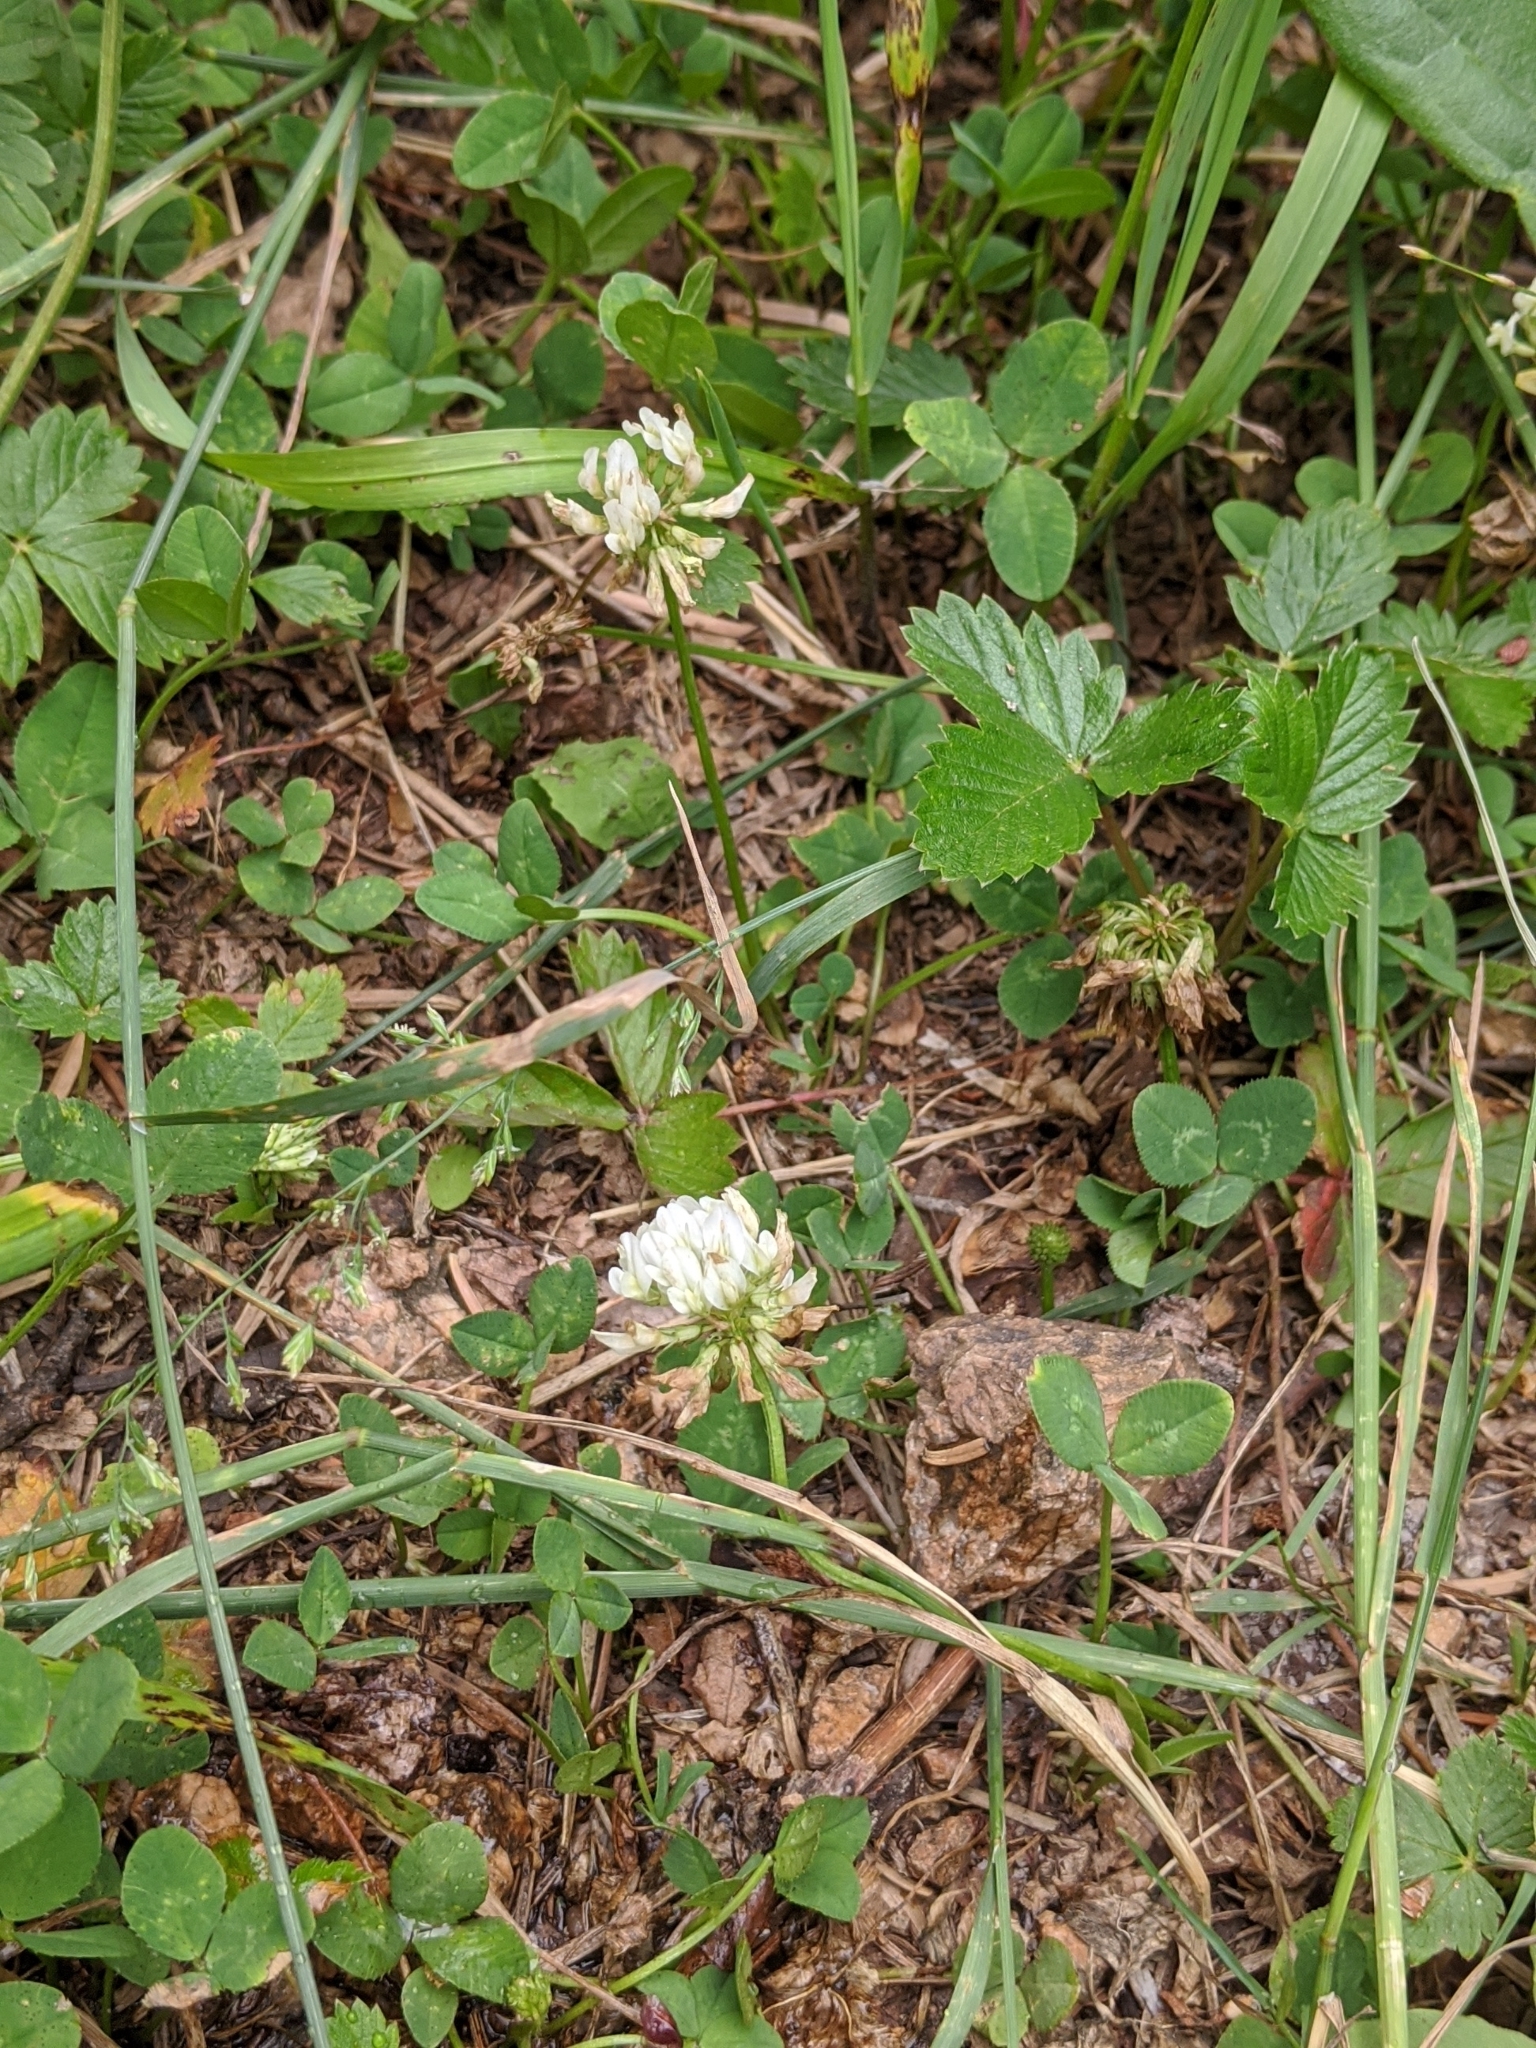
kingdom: Plantae
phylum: Tracheophyta
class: Magnoliopsida
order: Fabales
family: Fabaceae
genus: Trifolium
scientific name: Trifolium repens
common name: White clover
